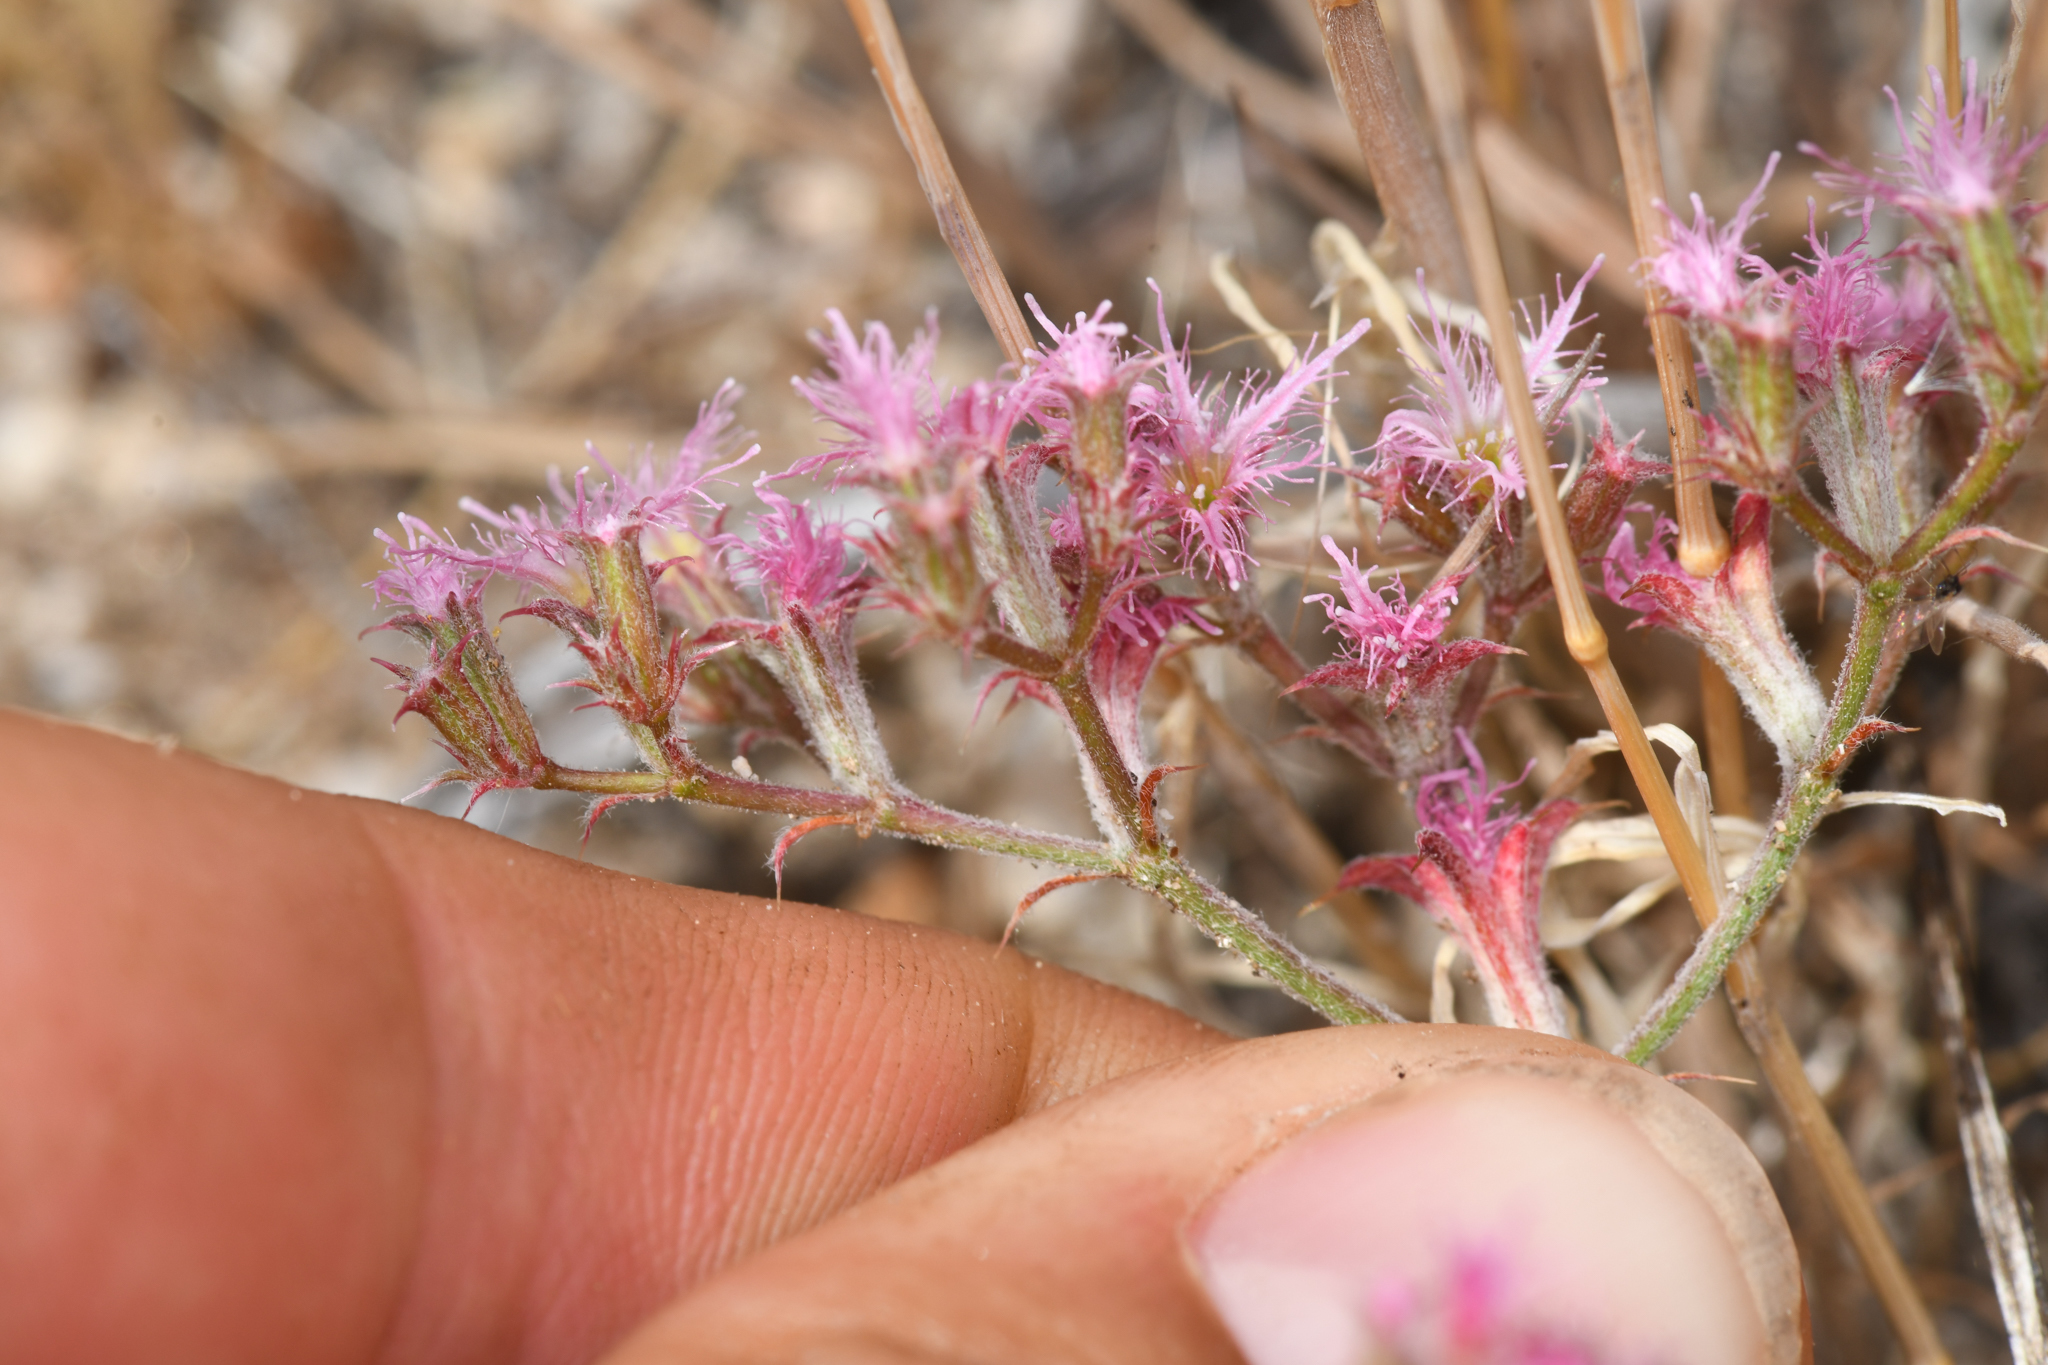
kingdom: Plantae
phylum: Tracheophyta
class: Magnoliopsida
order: Caryophyllales
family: Polygonaceae
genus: Chorizanthe
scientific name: Chorizanthe fimbriata
